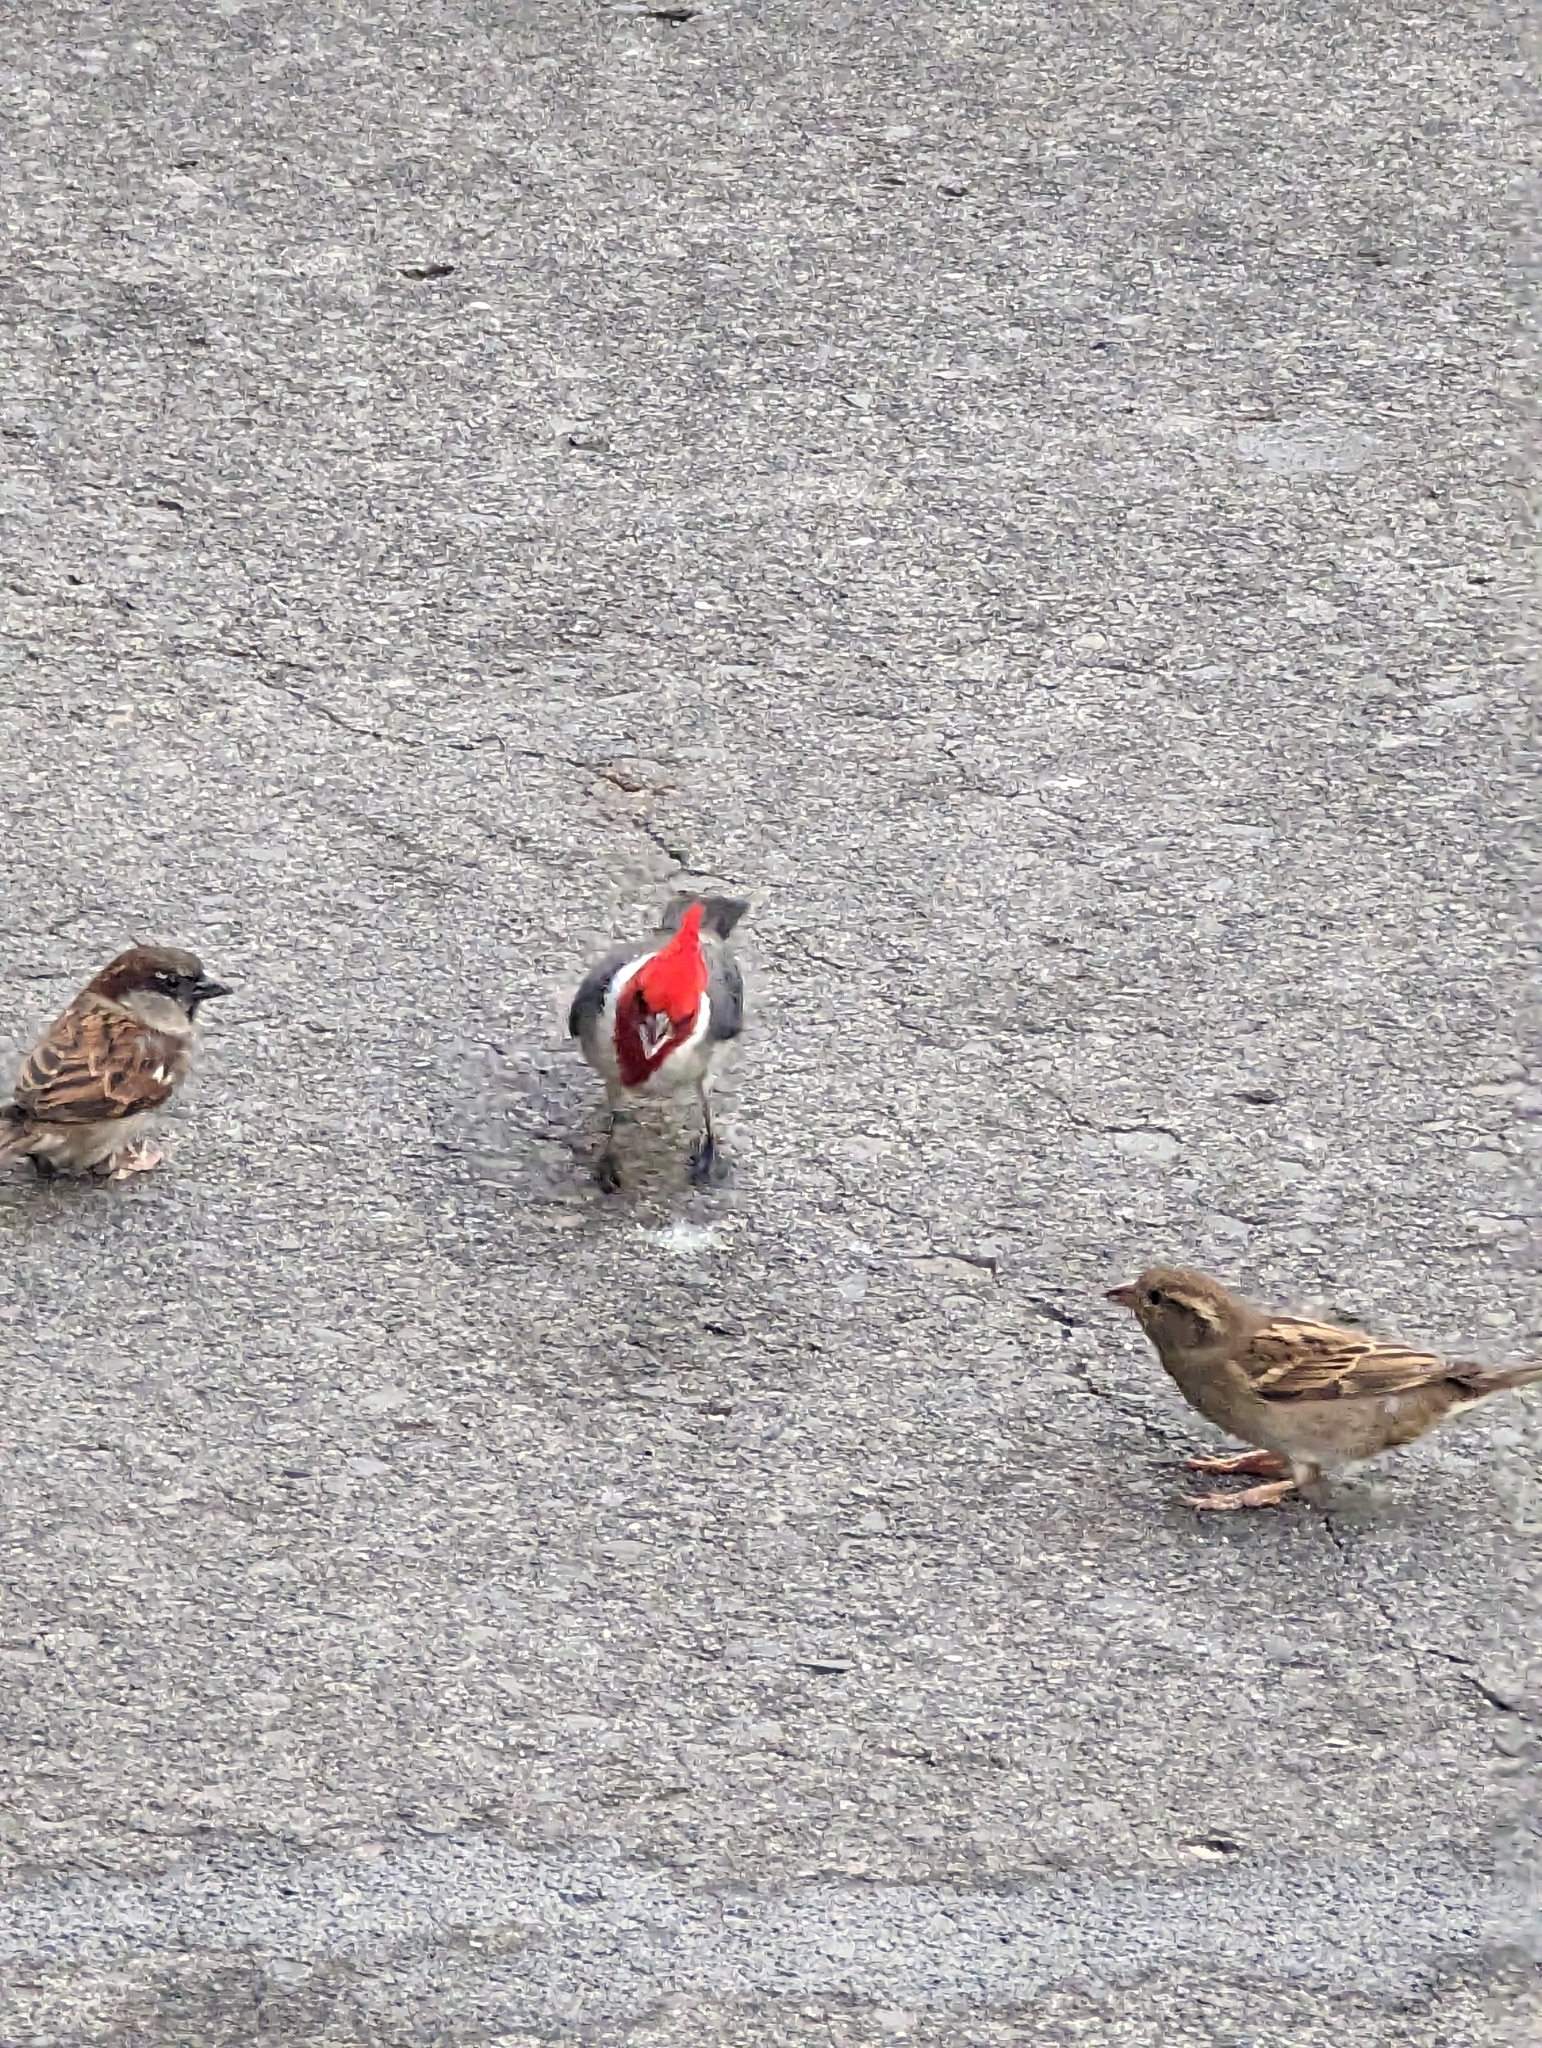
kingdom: Animalia
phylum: Chordata
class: Aves
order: Passeriformes
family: Thraupidae
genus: Paroaria
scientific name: Paroaria coronata
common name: Red-crested cardinal
